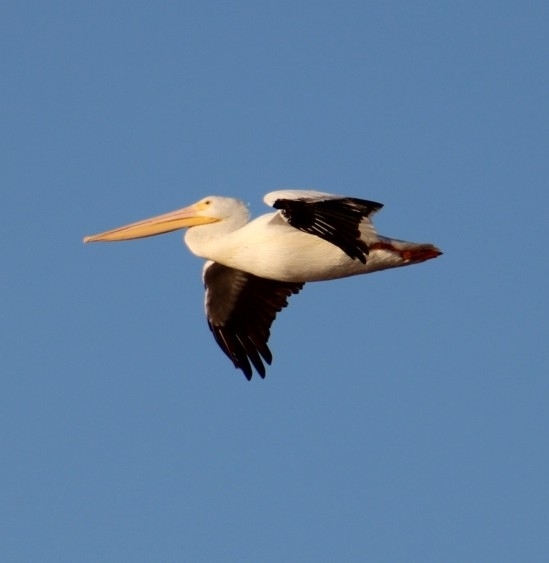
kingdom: Animalia
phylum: Chordata
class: Aves
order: Pelecaniformes
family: Pelecanidae
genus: Pelecanus
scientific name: Pelecanus erythrorhynchos
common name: American white pelican
